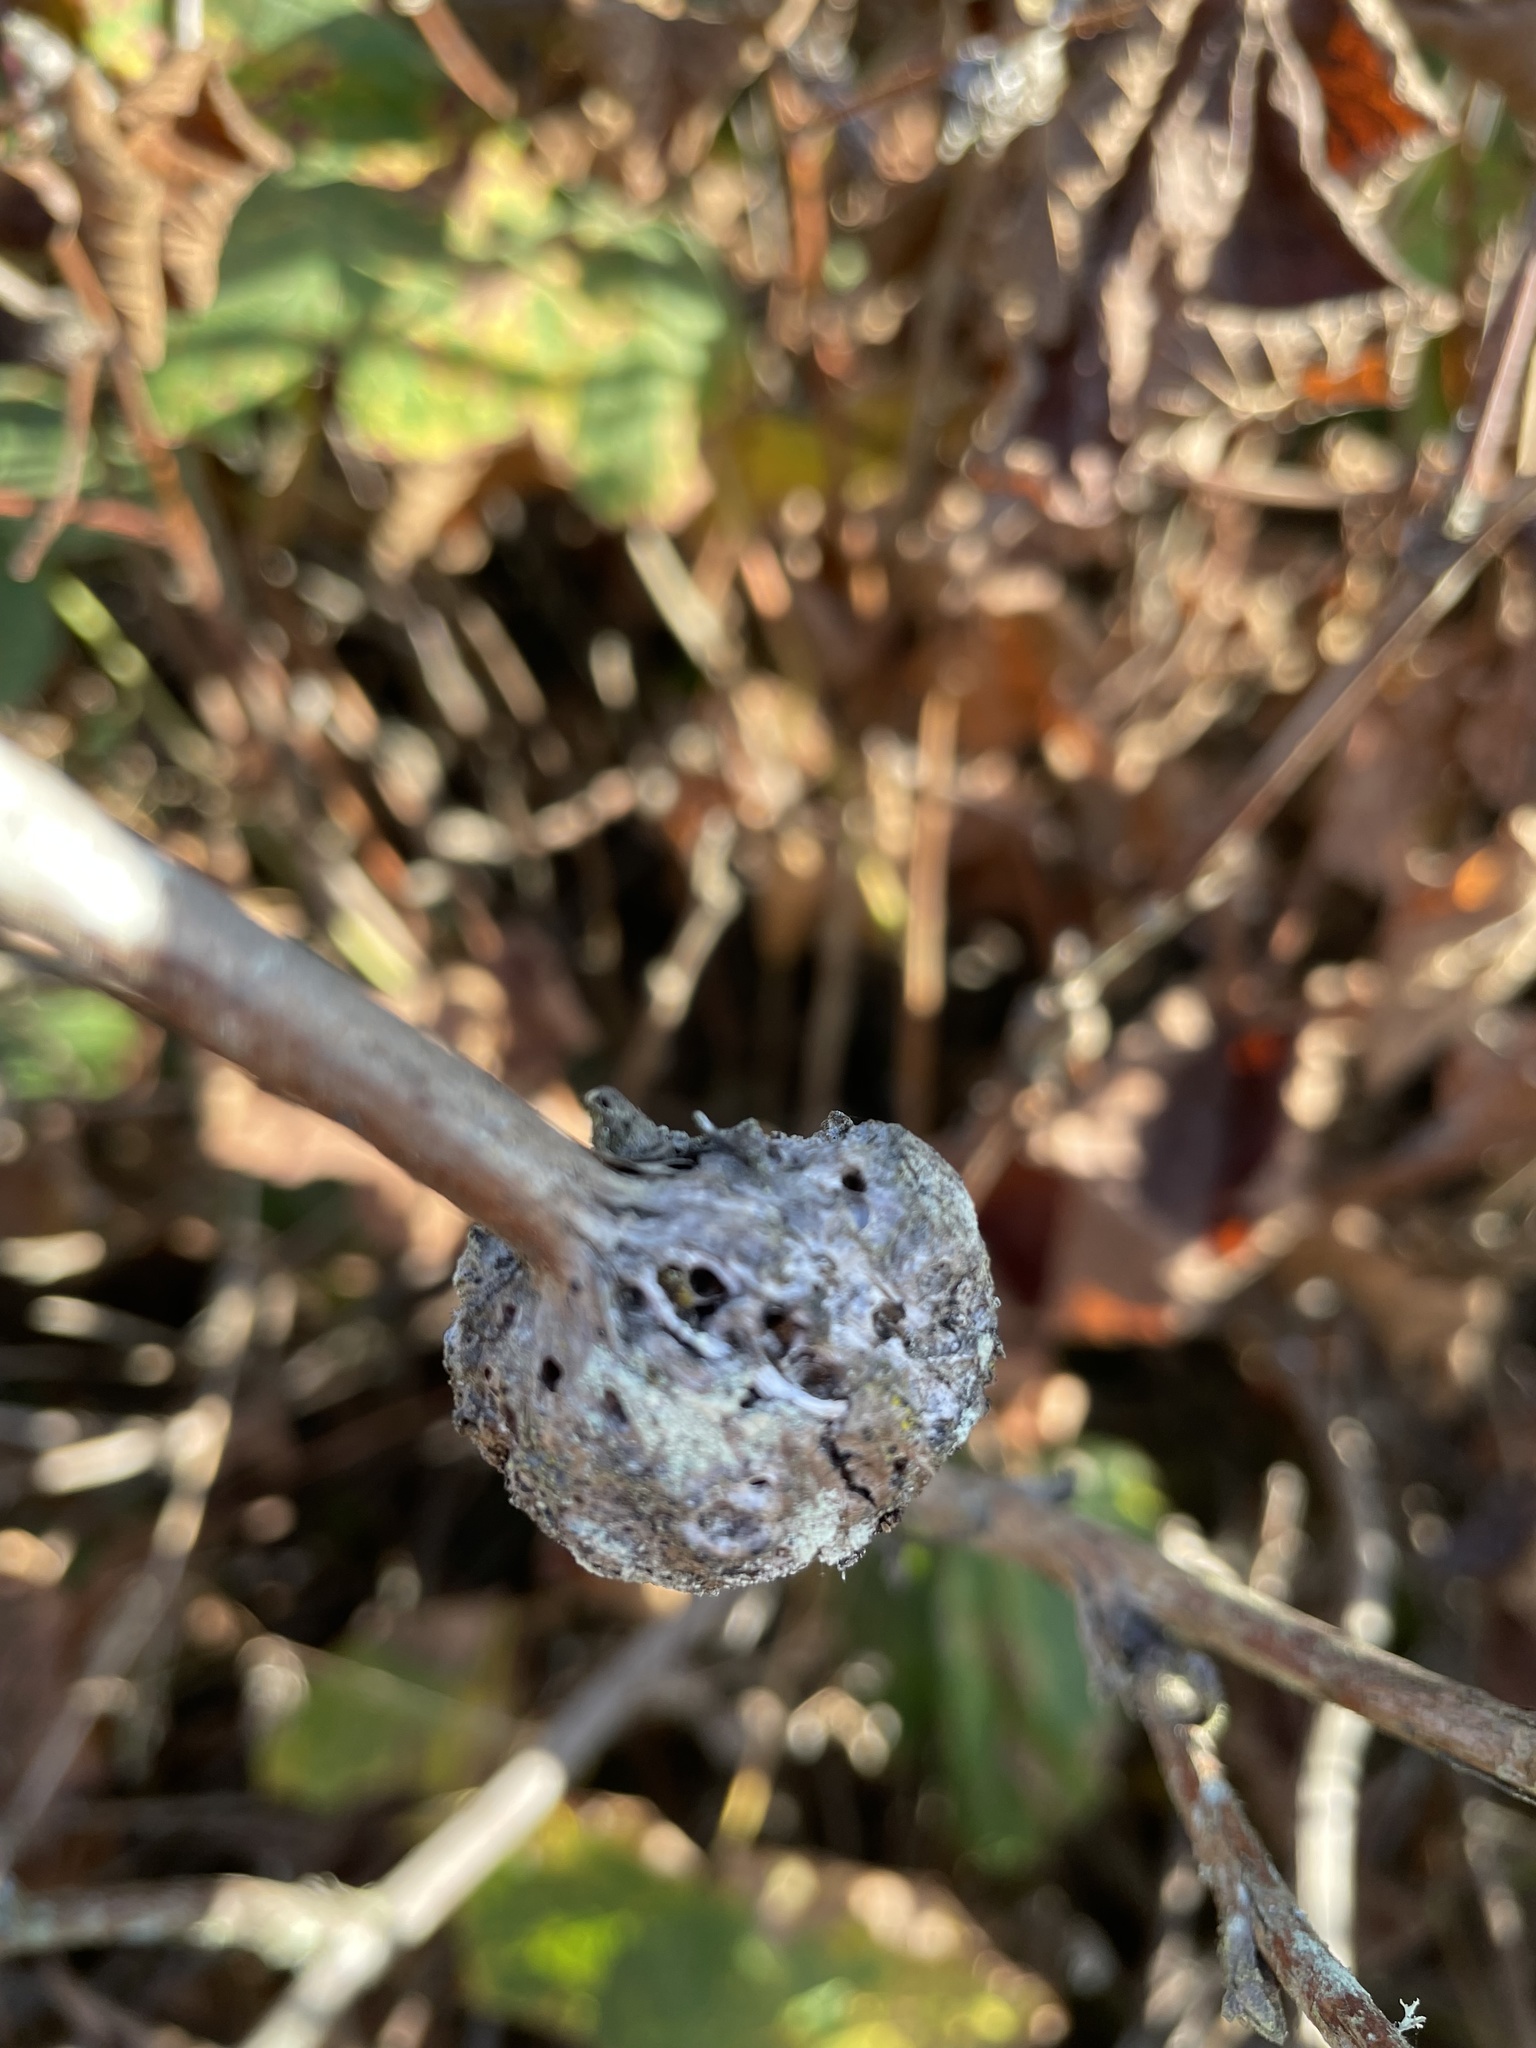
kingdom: Animalia
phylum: Arthropoda
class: Insecta
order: Hymenoptera
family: Cynipidae
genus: Diastrophus
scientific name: Diastrophus
